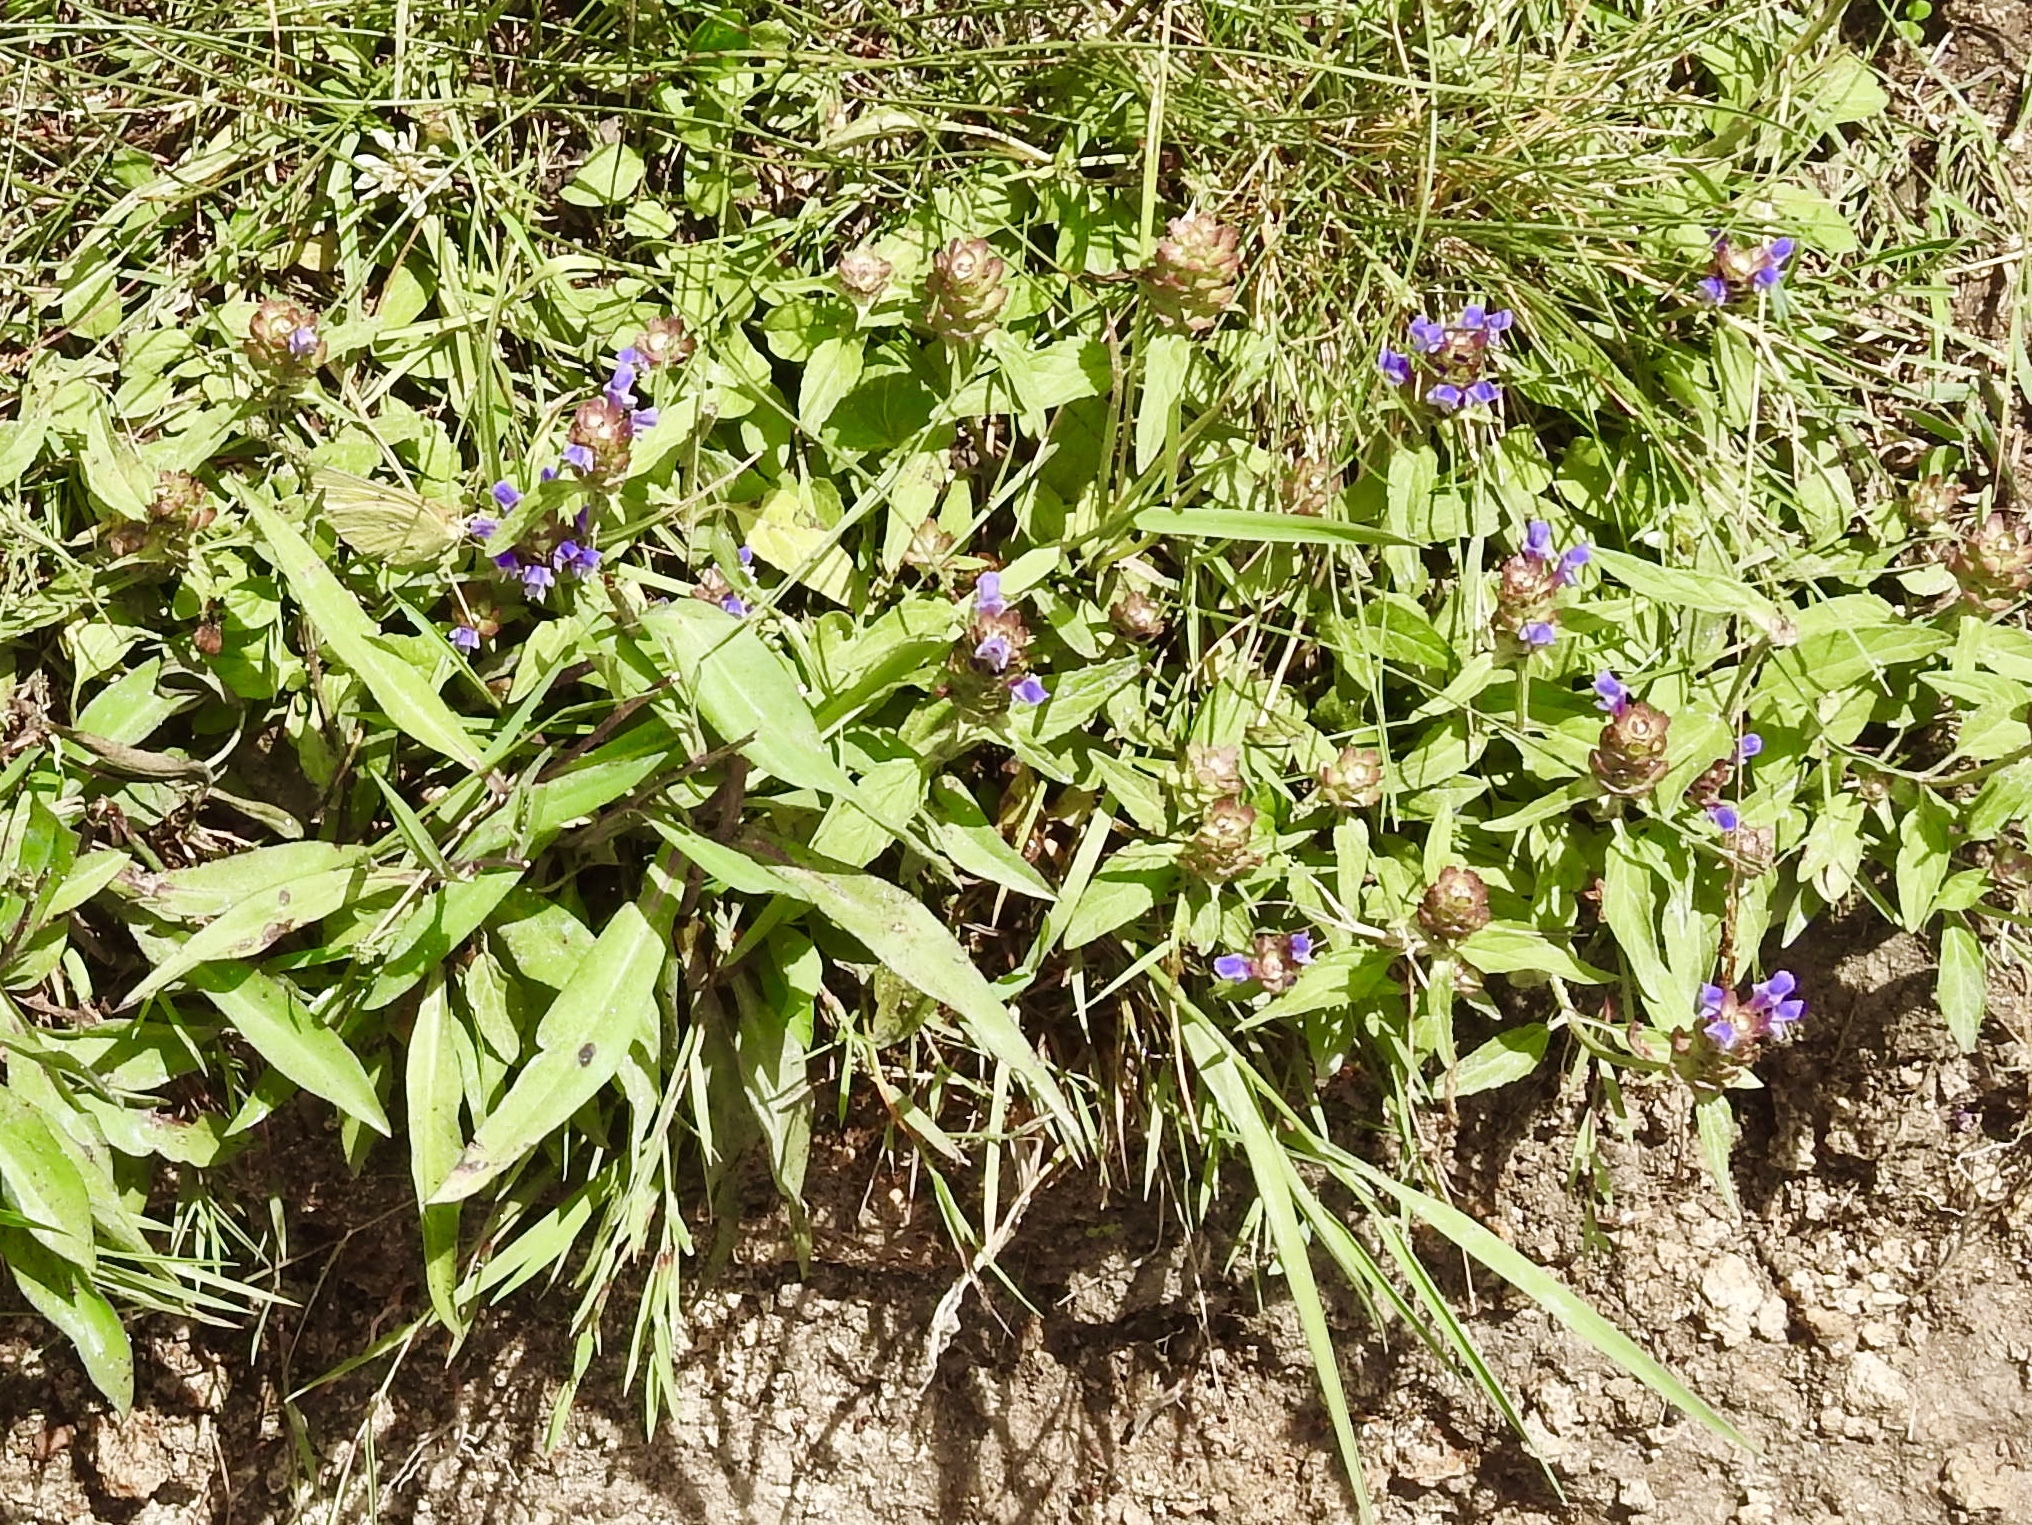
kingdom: Plantae
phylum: Tracheophyta
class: Magnoliopsida
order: Lamiales
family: Lamiaceae
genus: Prunella
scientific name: Prunella vulgaris
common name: Heal-all
